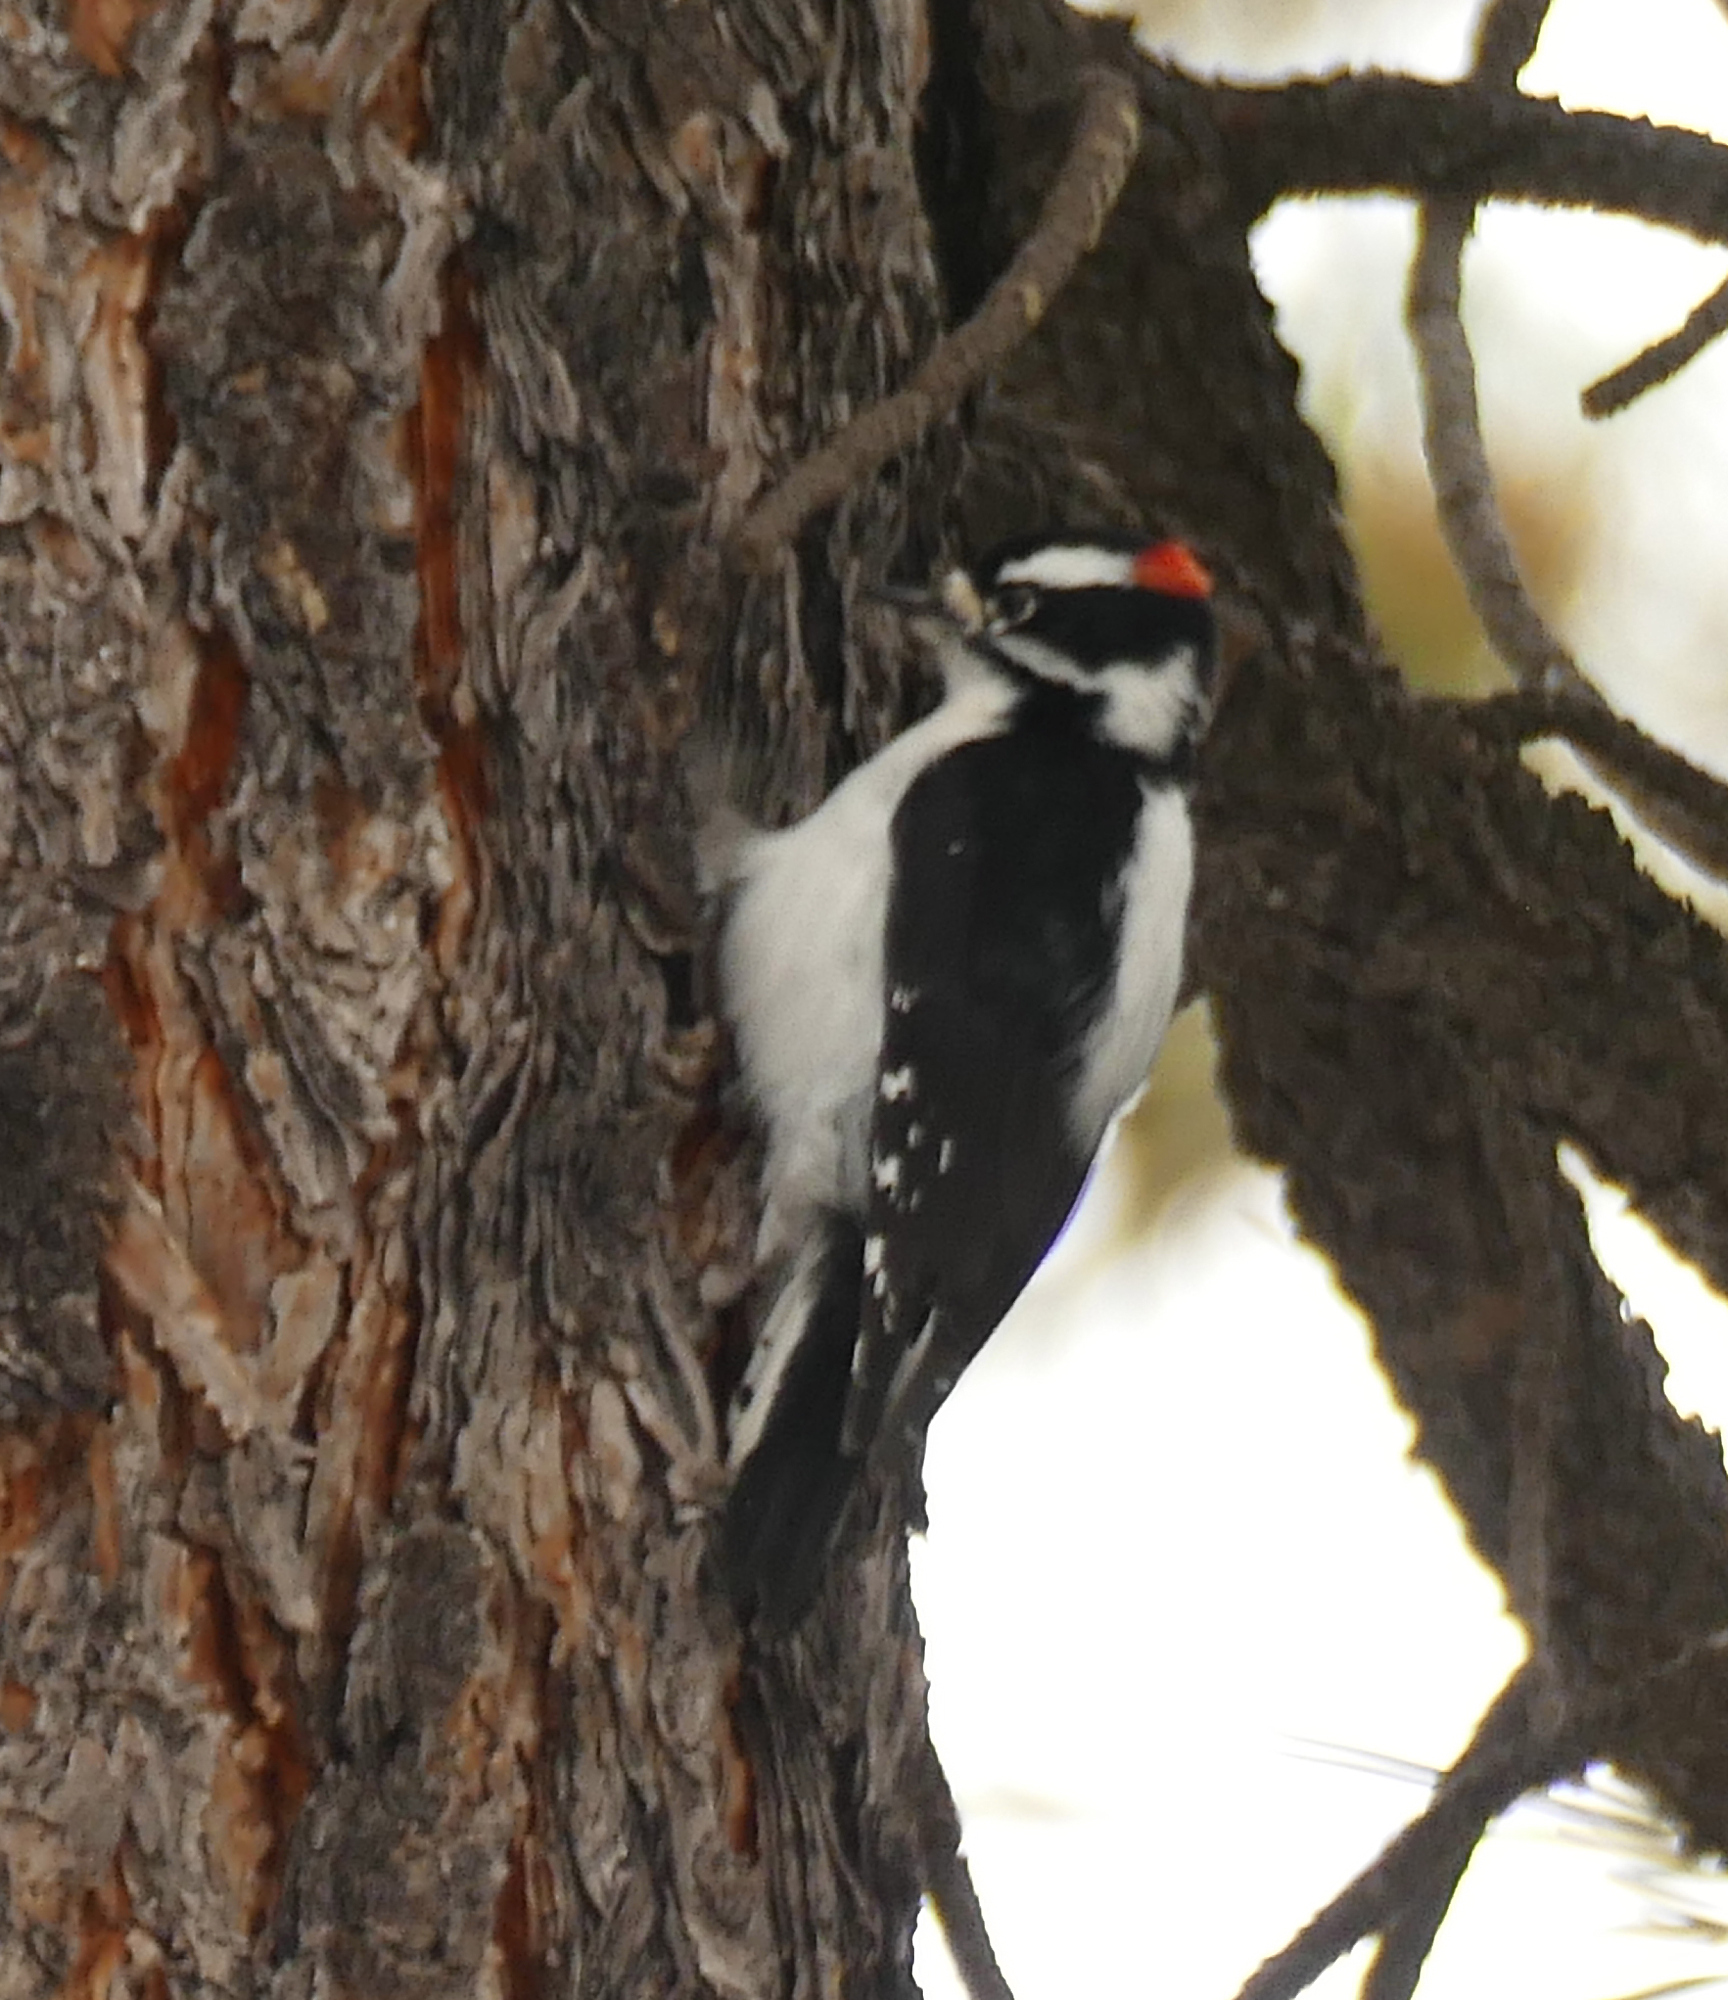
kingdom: Animalia
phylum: Chordata
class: Aves
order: Piciformes
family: Picidae
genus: Dryobates
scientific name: Dryobates pubescens
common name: Downy woodpecker
